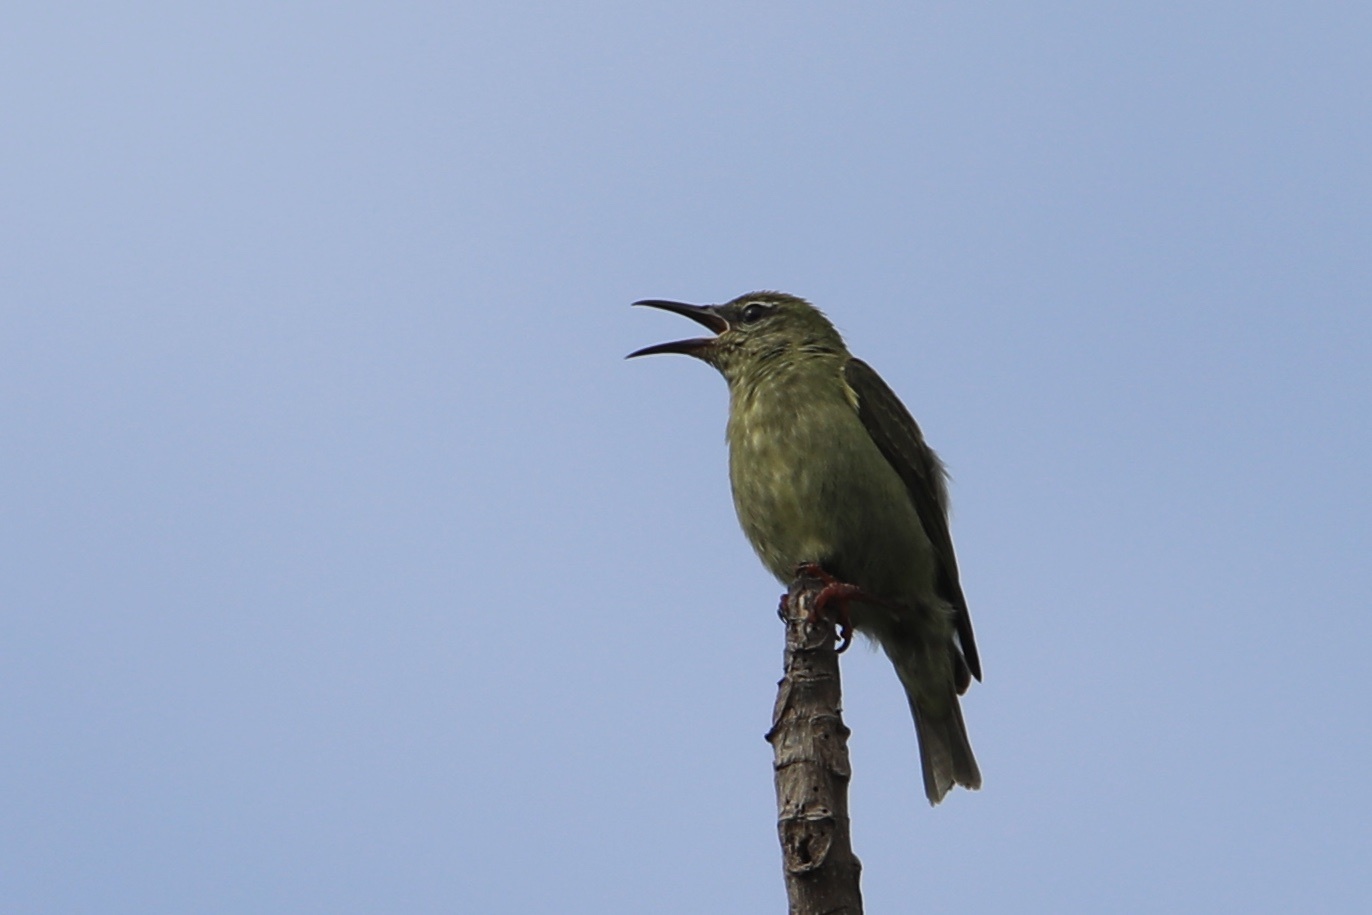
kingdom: Animalia
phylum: Chordata
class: Aves
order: Passeriformes
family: Thraupidae
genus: Cyanerpes
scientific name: Cyanerpes cyaneus
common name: Red-legged honeycreeper
